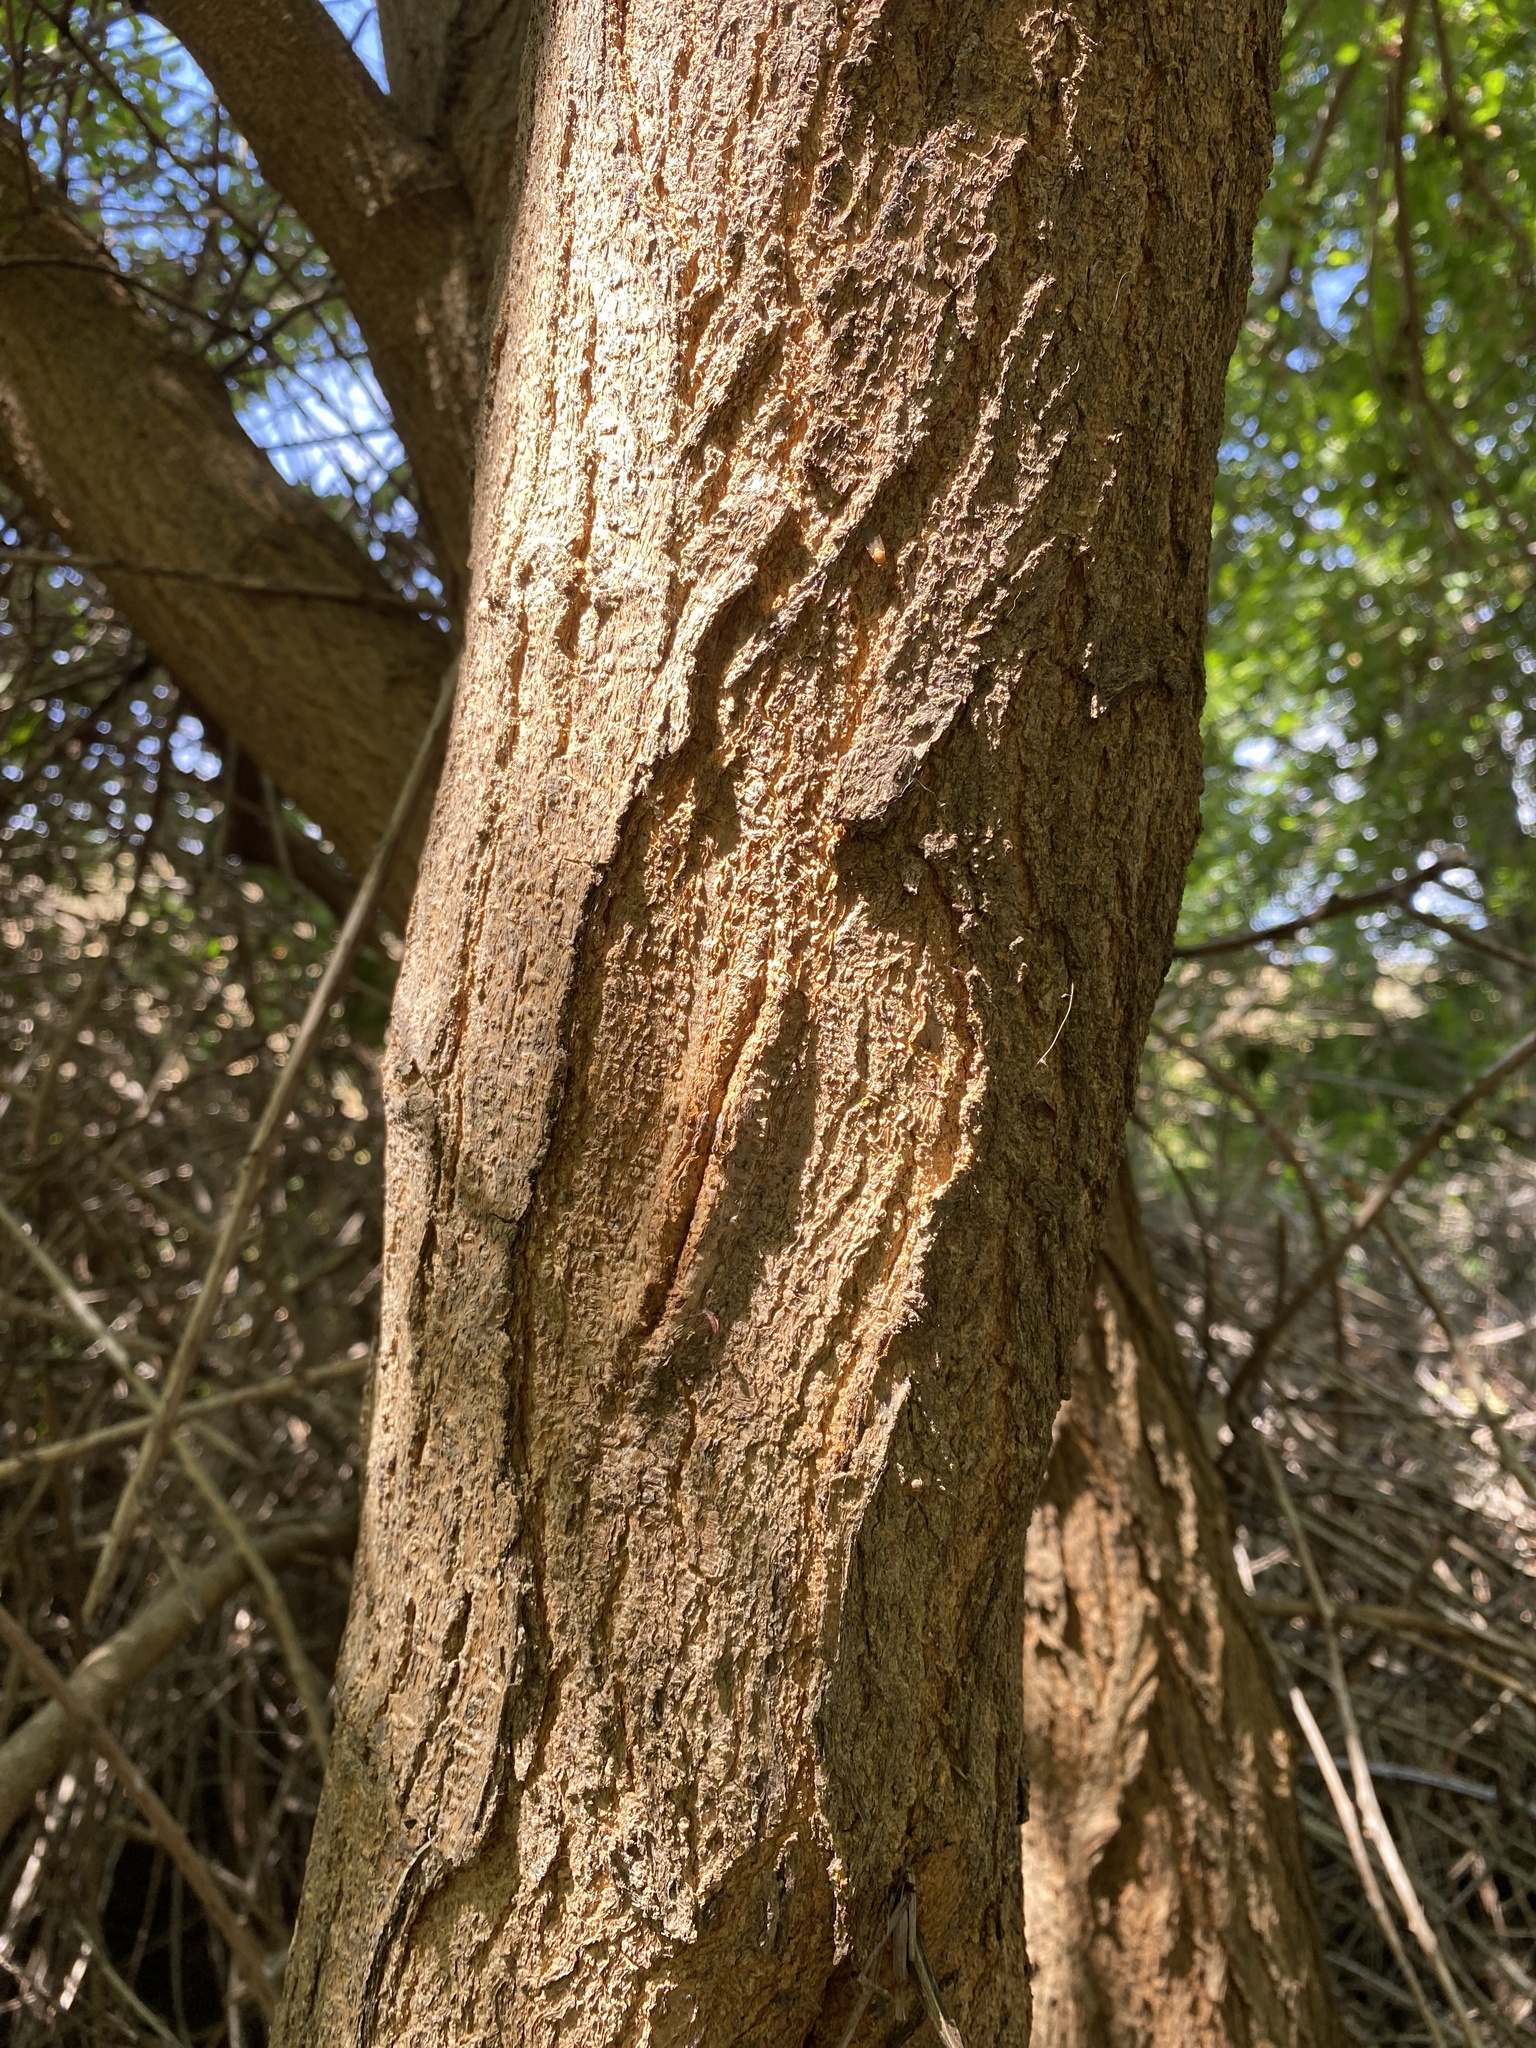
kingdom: Plantae
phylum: Tracheophyta
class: Magnoliopsida
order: Rosales
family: Moraceae
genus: Morus
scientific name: Morus alba
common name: White mulberry
